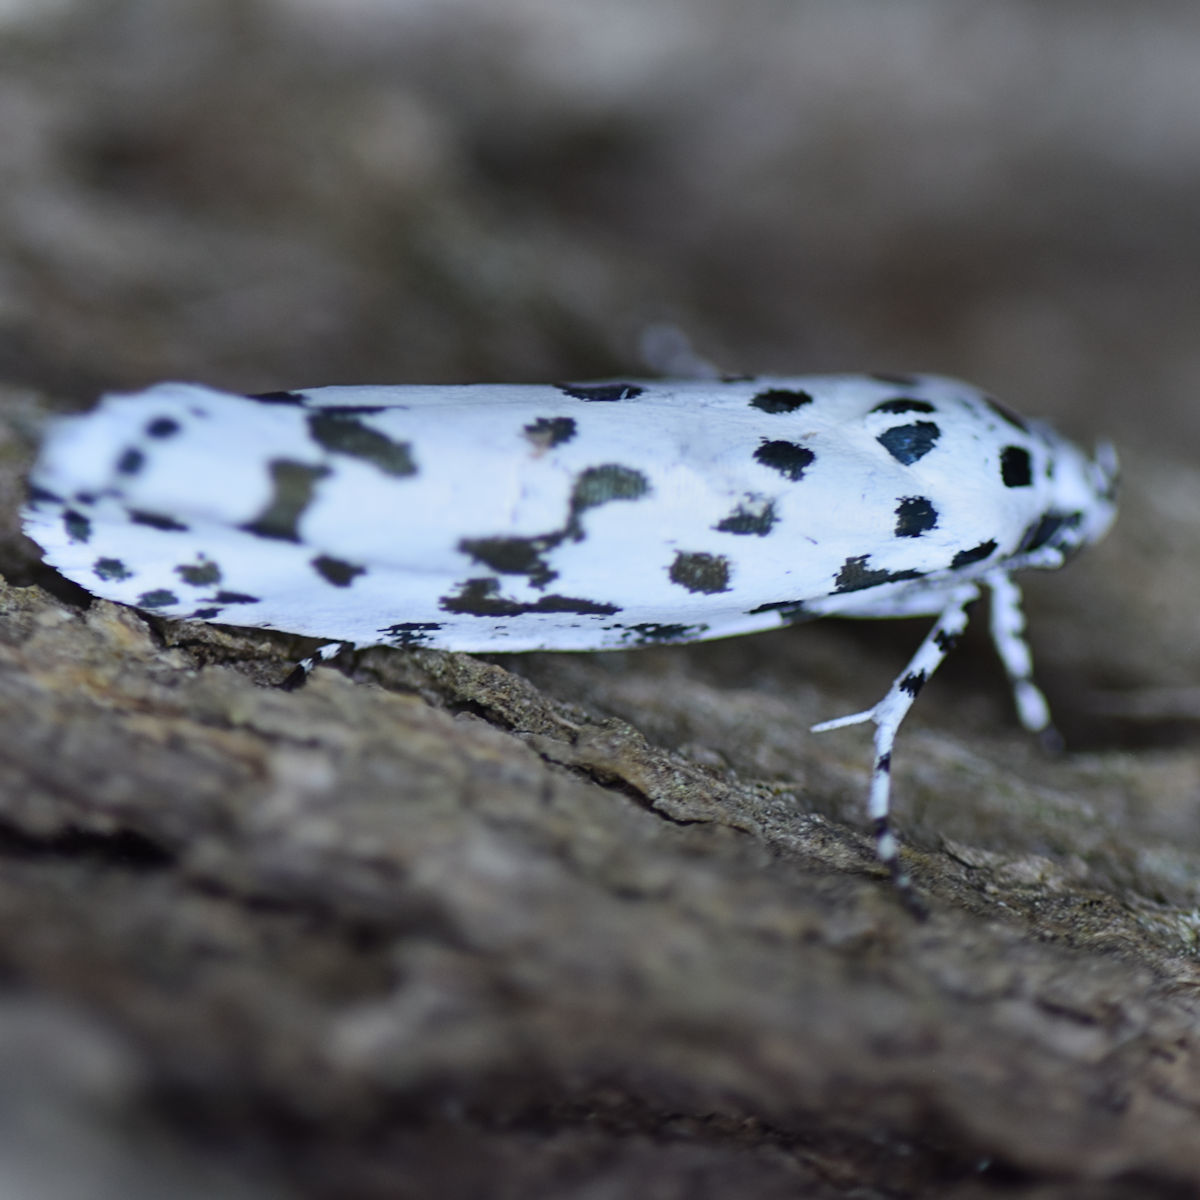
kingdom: Animalia
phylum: Arthropoda
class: Insecta
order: Lepidoptera
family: Ethmiidae
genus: Ethmia
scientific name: Ethmia notatella
